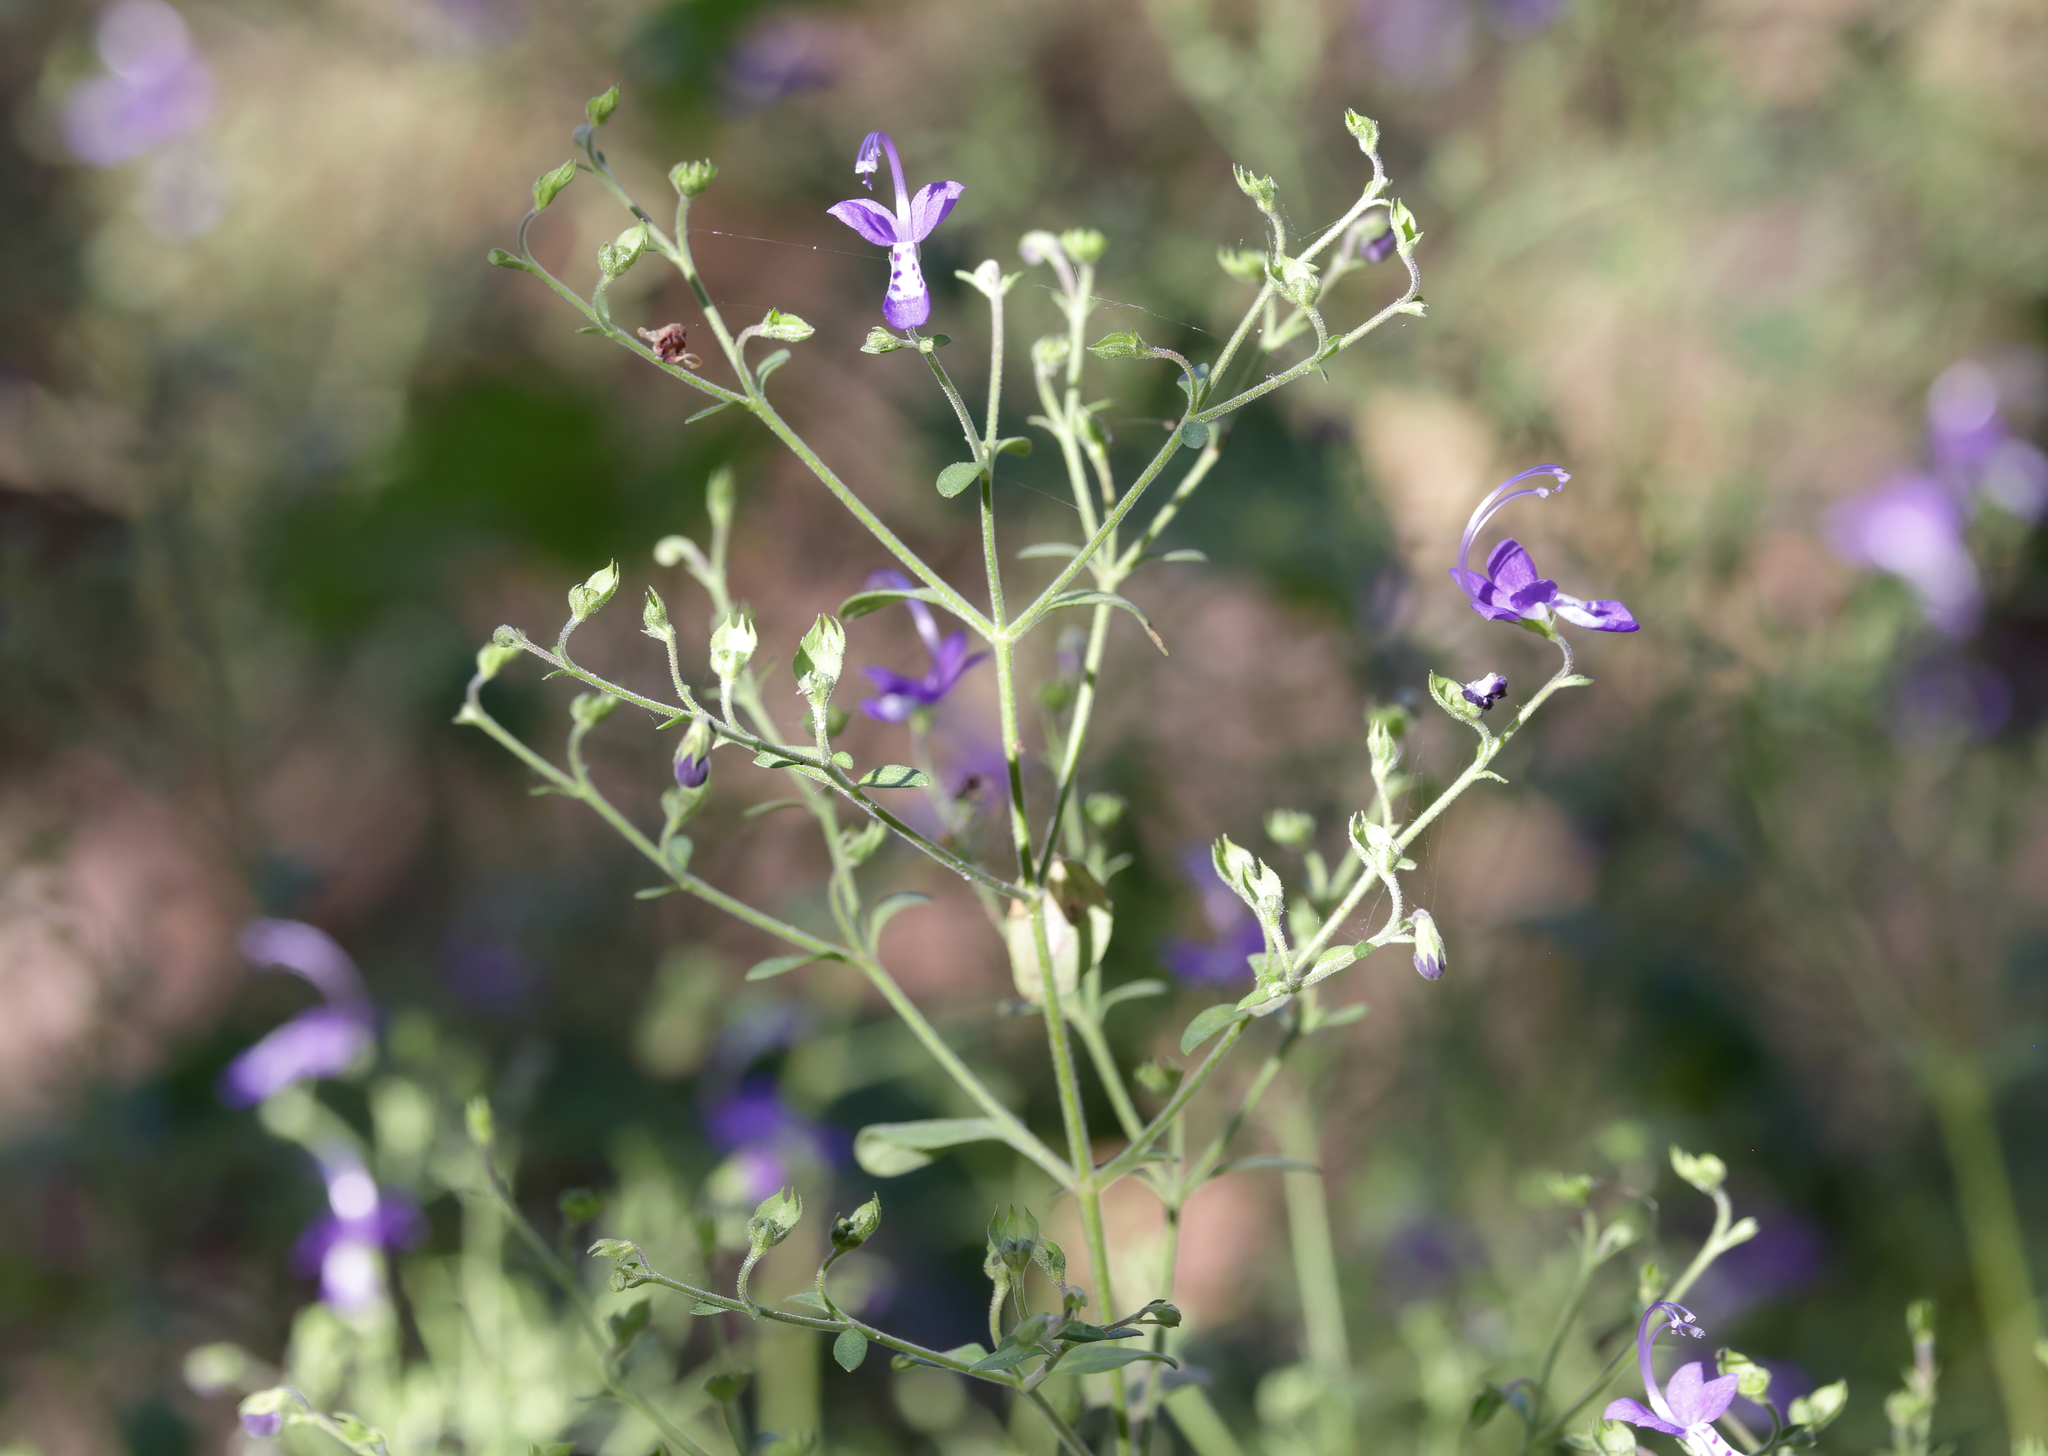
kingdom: Plantae
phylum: Tracheophyta
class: Magnoliopsida
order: Lamiales
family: Lamiaceae
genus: Trichostema
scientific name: Trichostema fruticosum
